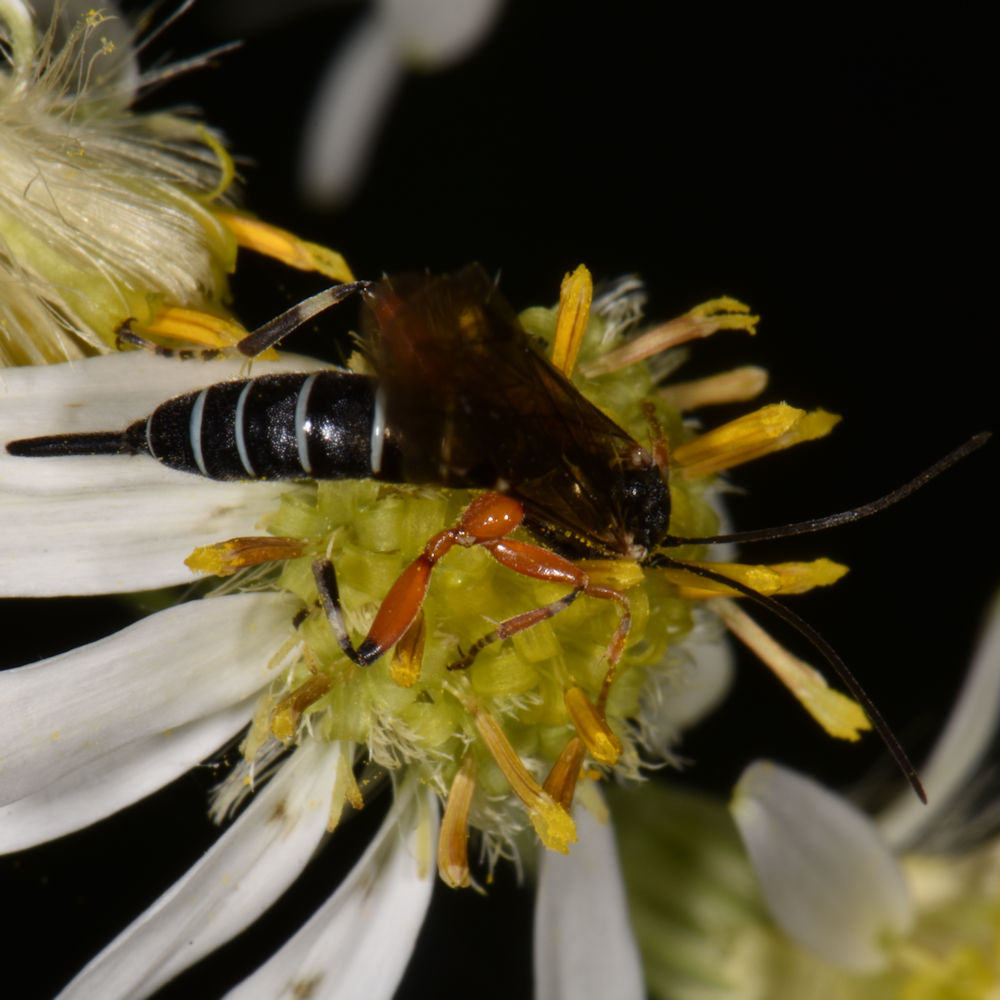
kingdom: Animalia
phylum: Arthropoda
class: Insecta
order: Hymenoptera
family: Ichneumonidae
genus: Itoplectis
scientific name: Itoplectis conquisitor
